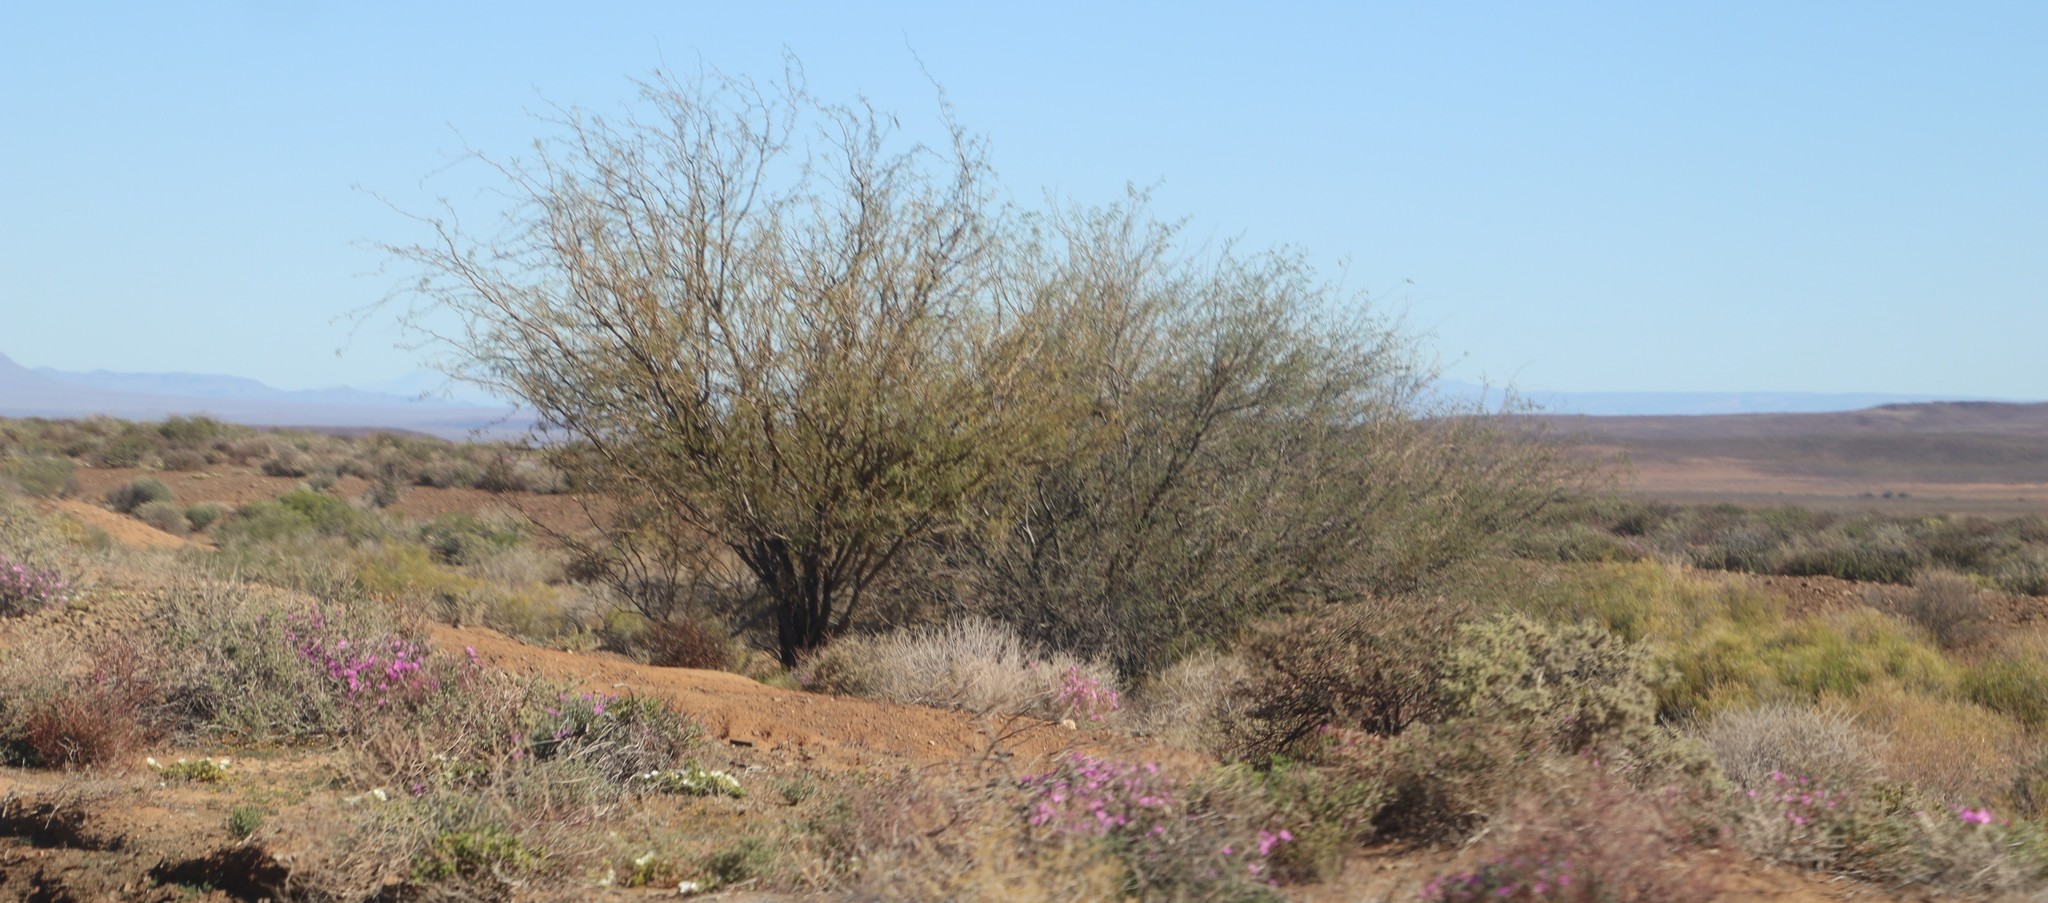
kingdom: Plantae
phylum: Tracheophyta
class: Magnoliopsida
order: Fabales
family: Fabaceae
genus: Prosopis
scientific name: Prosopis glandulosa
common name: Honey mesquite
